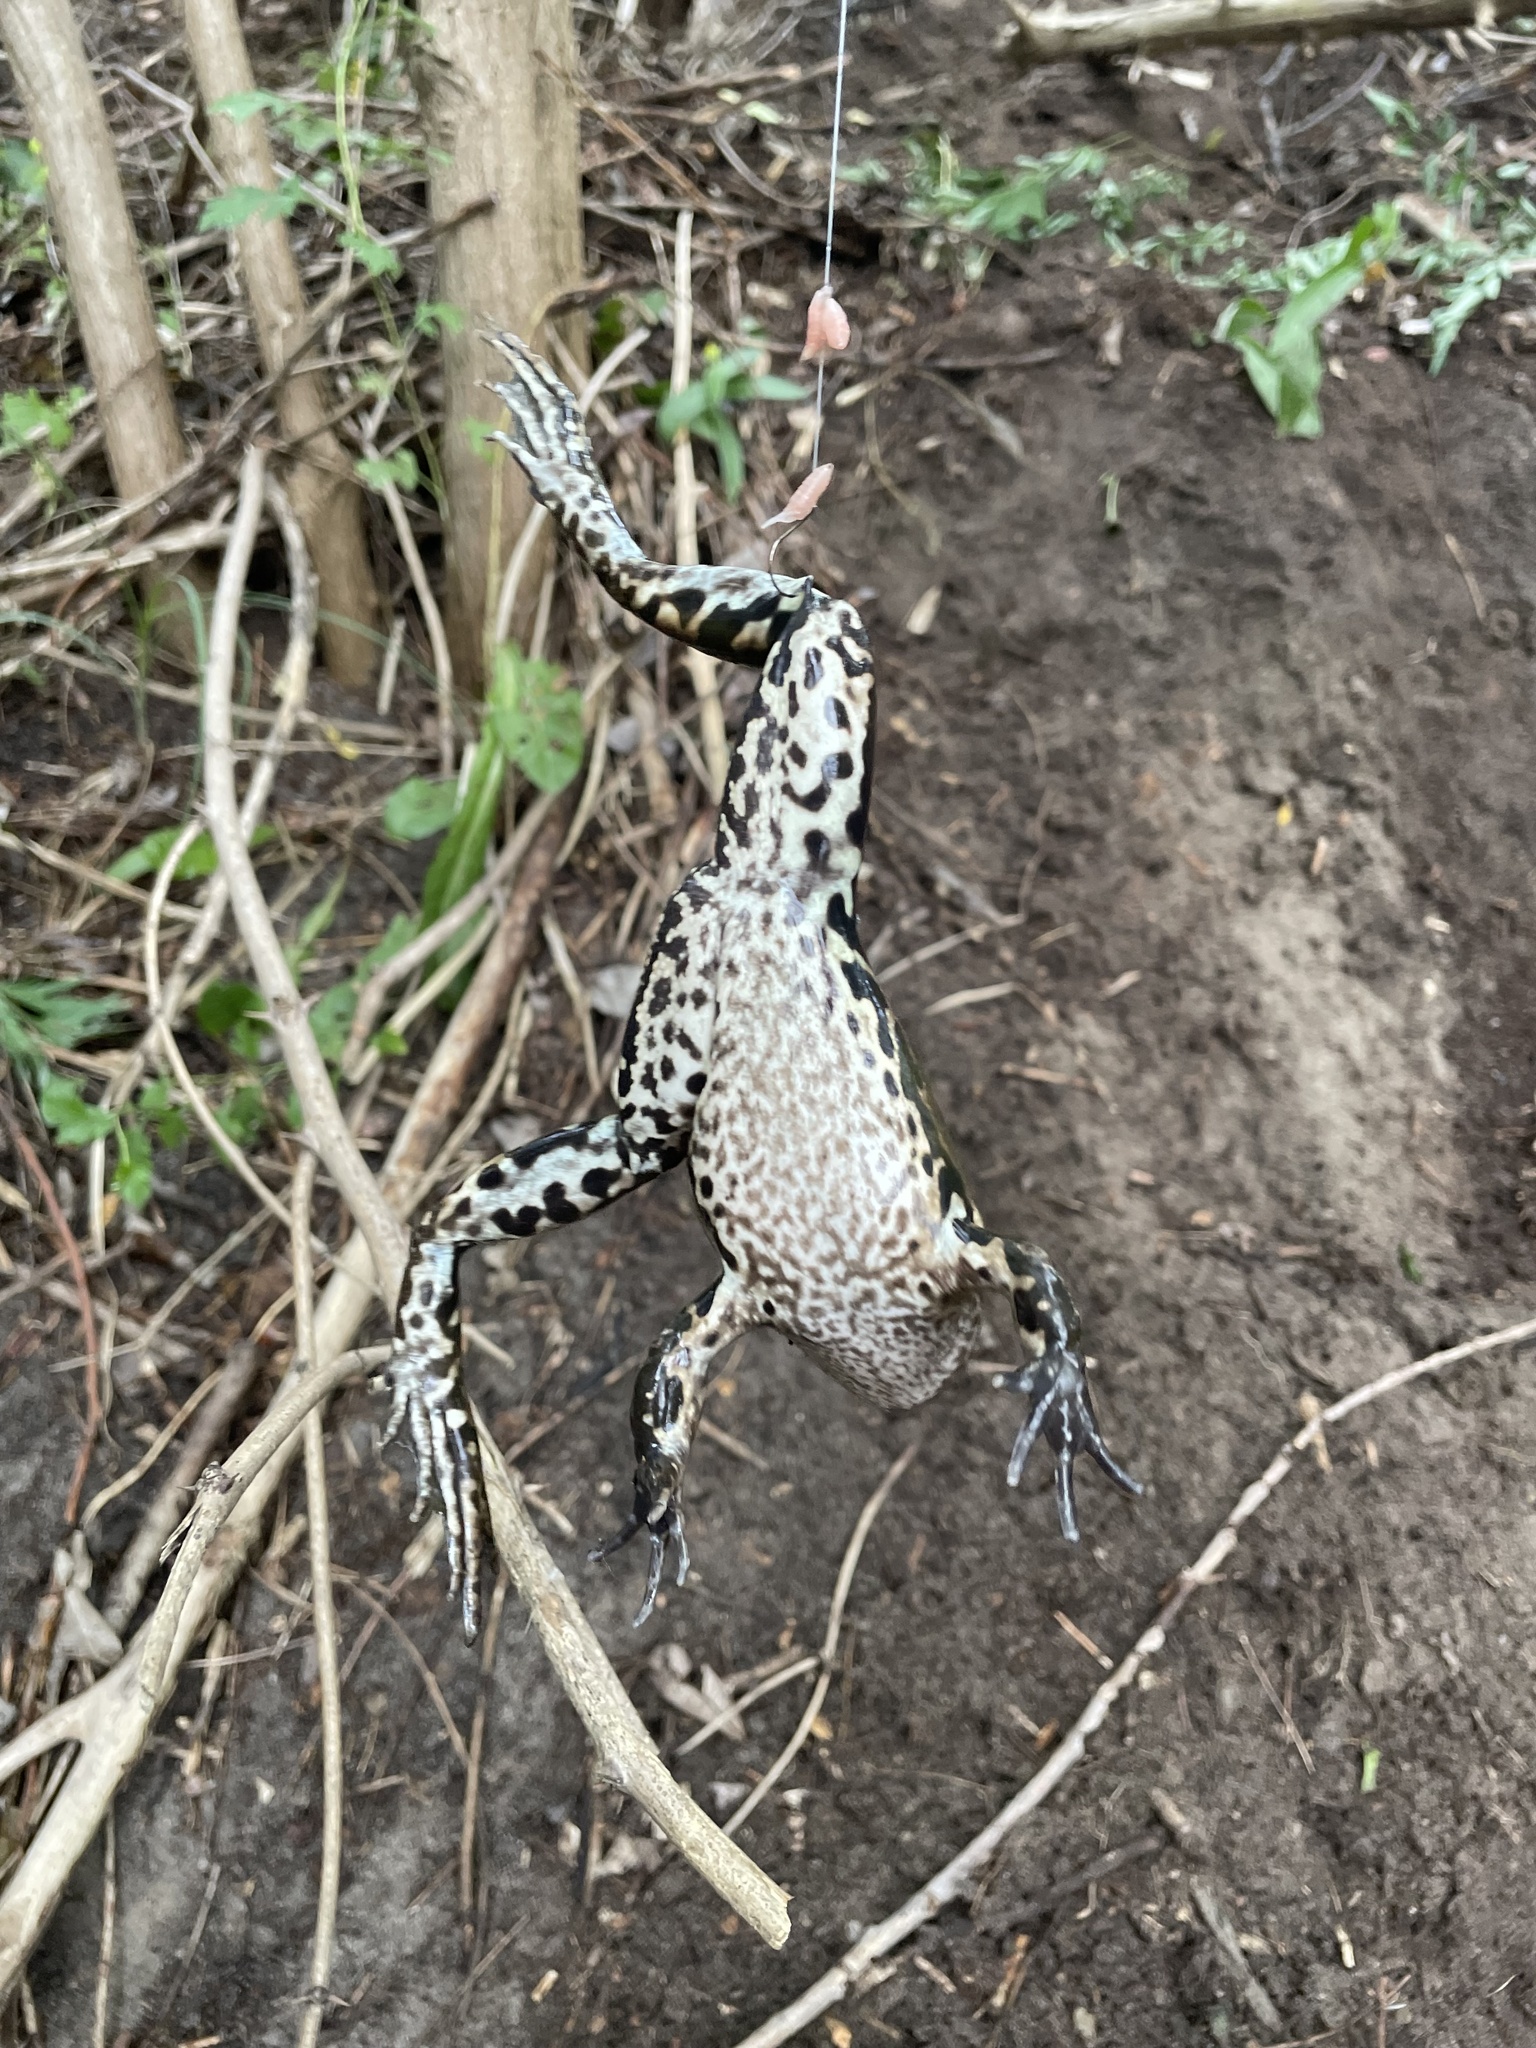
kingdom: Animalia
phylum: Chordata
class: Amphibia
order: Anura
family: Ranidae
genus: Pelophylax
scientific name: Pelophylax ridibundus
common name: Marsh frog
